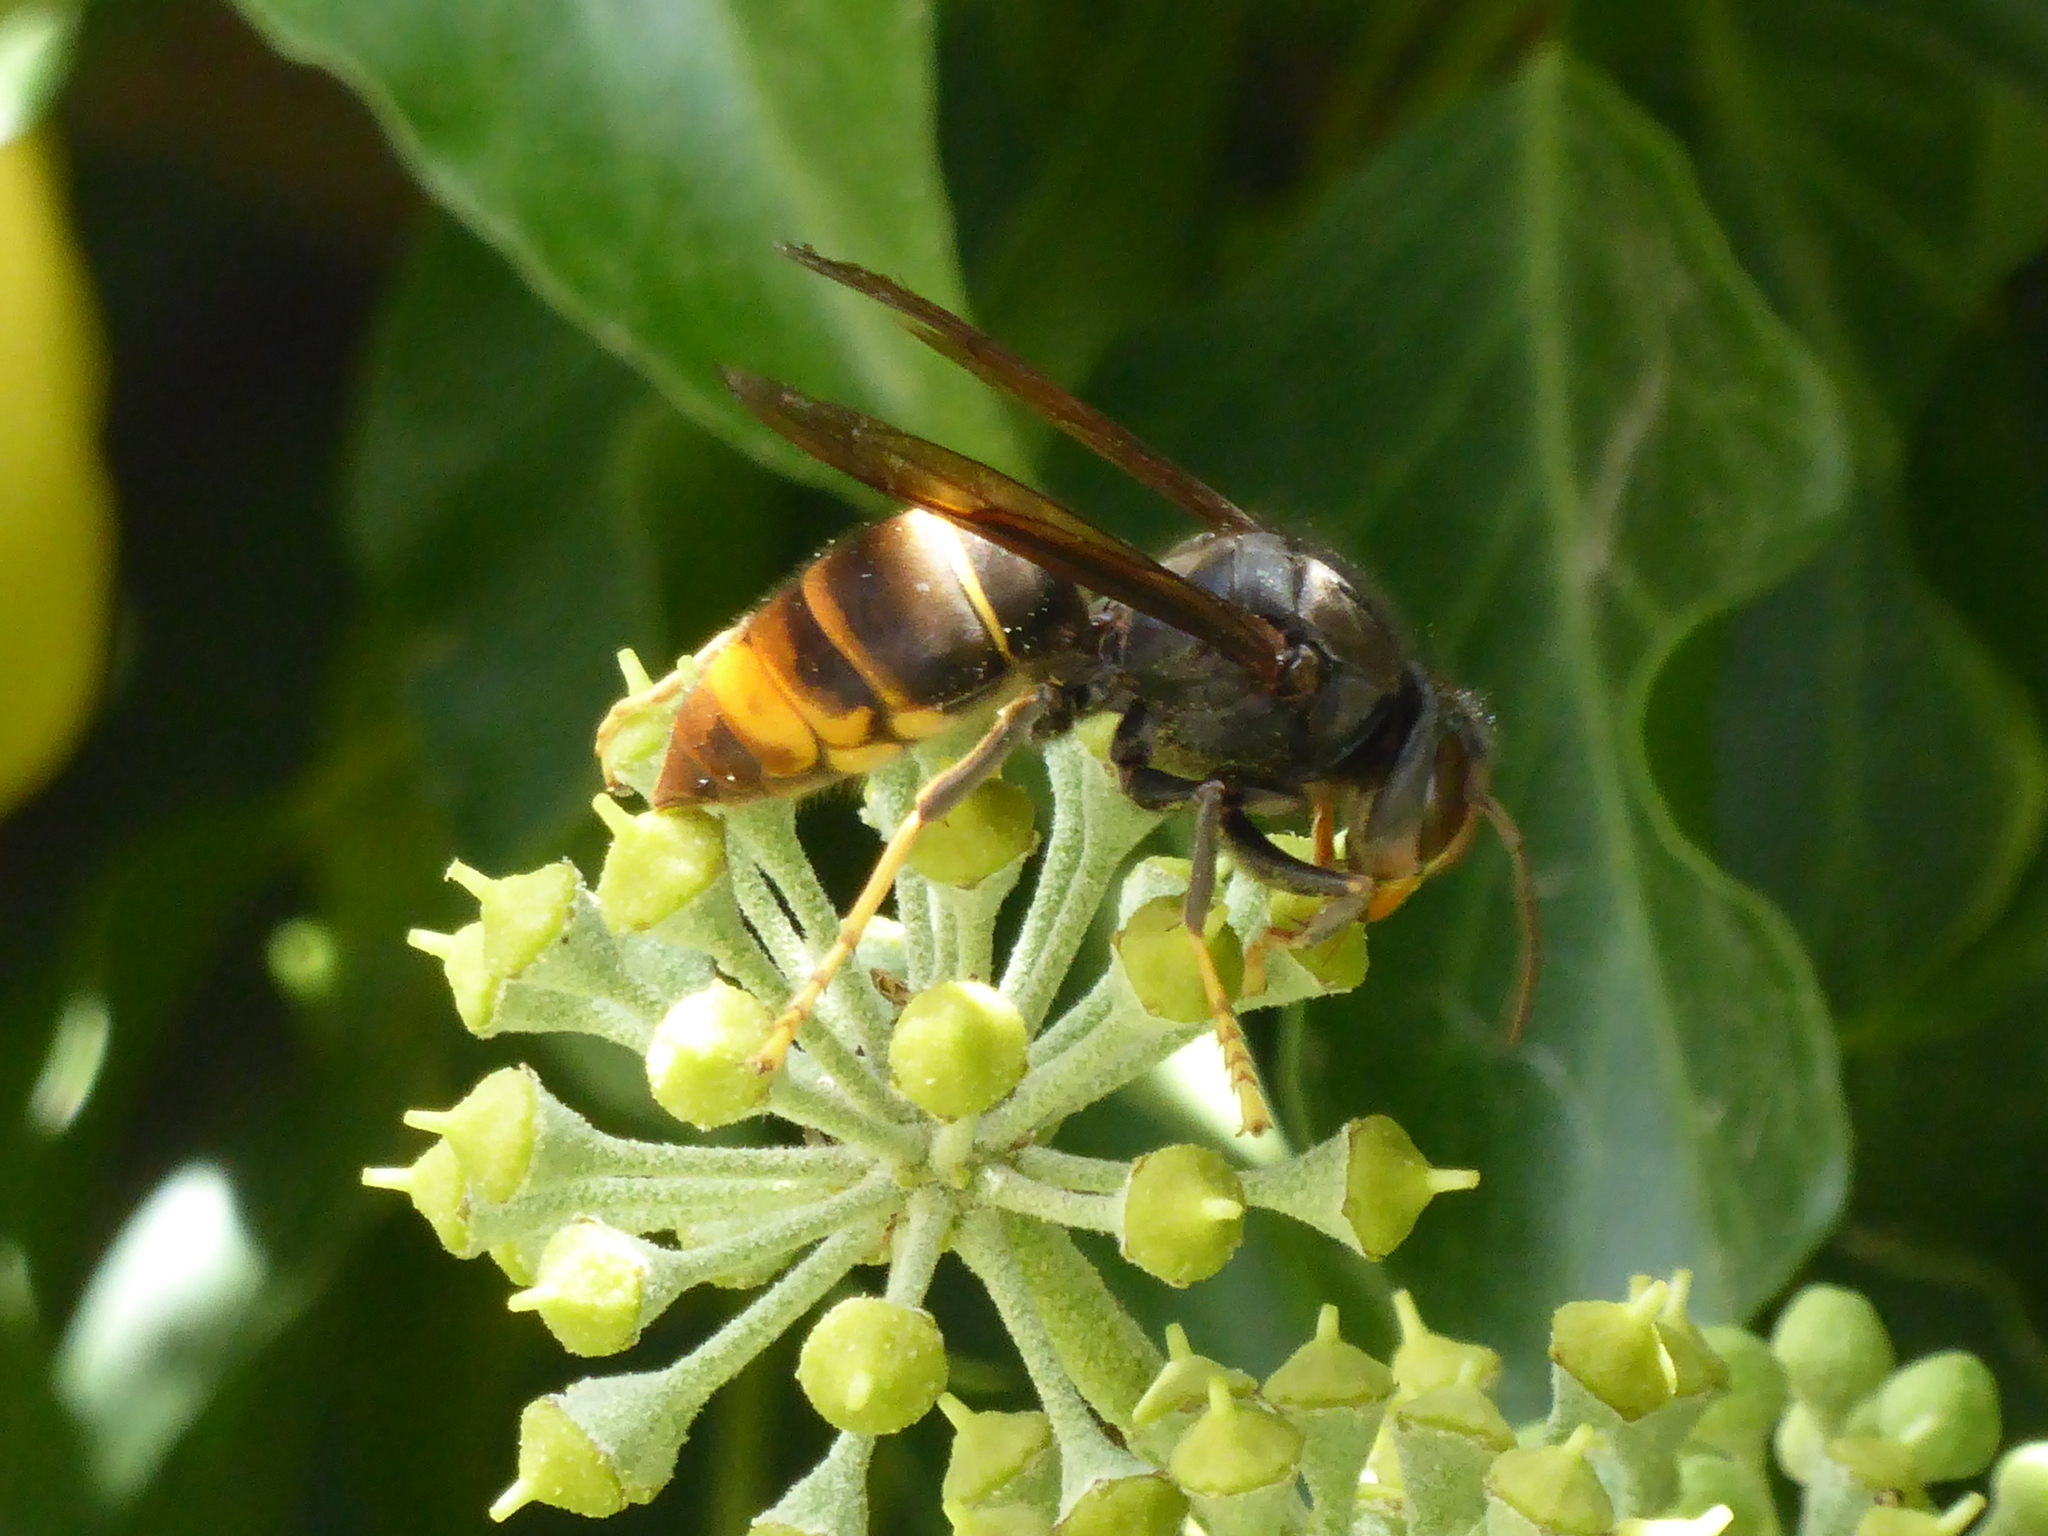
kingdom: Animalia
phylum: Arthropoda
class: Insecta
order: Hymenoptera
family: Vespidae
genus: Vespa
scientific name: Vespa velutina
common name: Asian hornet
